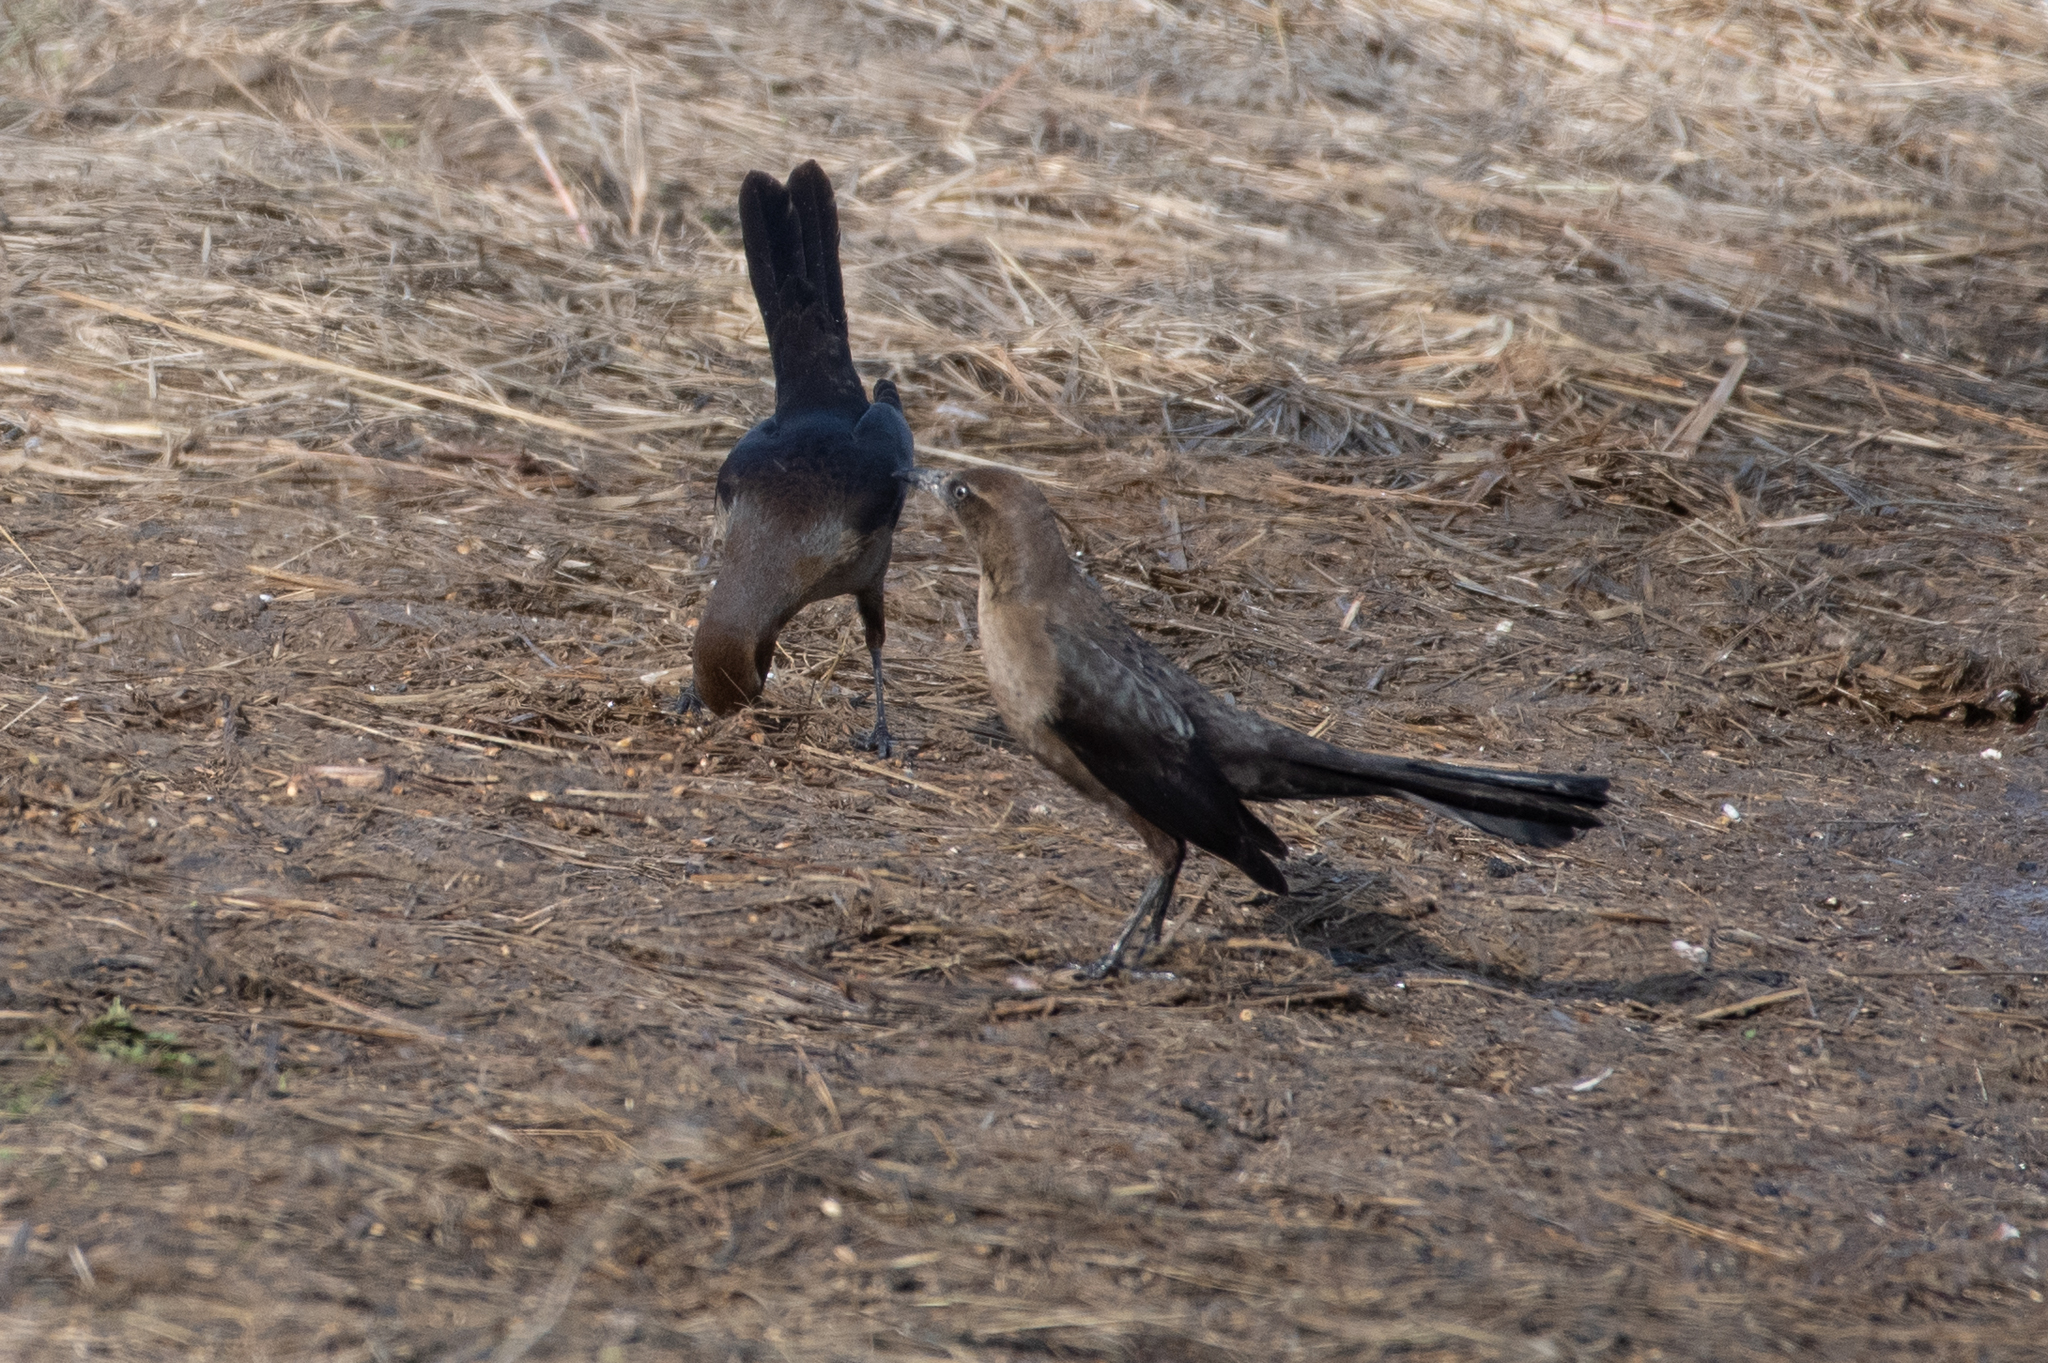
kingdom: Animalia
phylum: Chordata
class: Aves
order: Passeriformes
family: Icteridae
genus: Quiscalus
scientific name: Quiscalus mexicanus
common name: Great-tailed grackle
